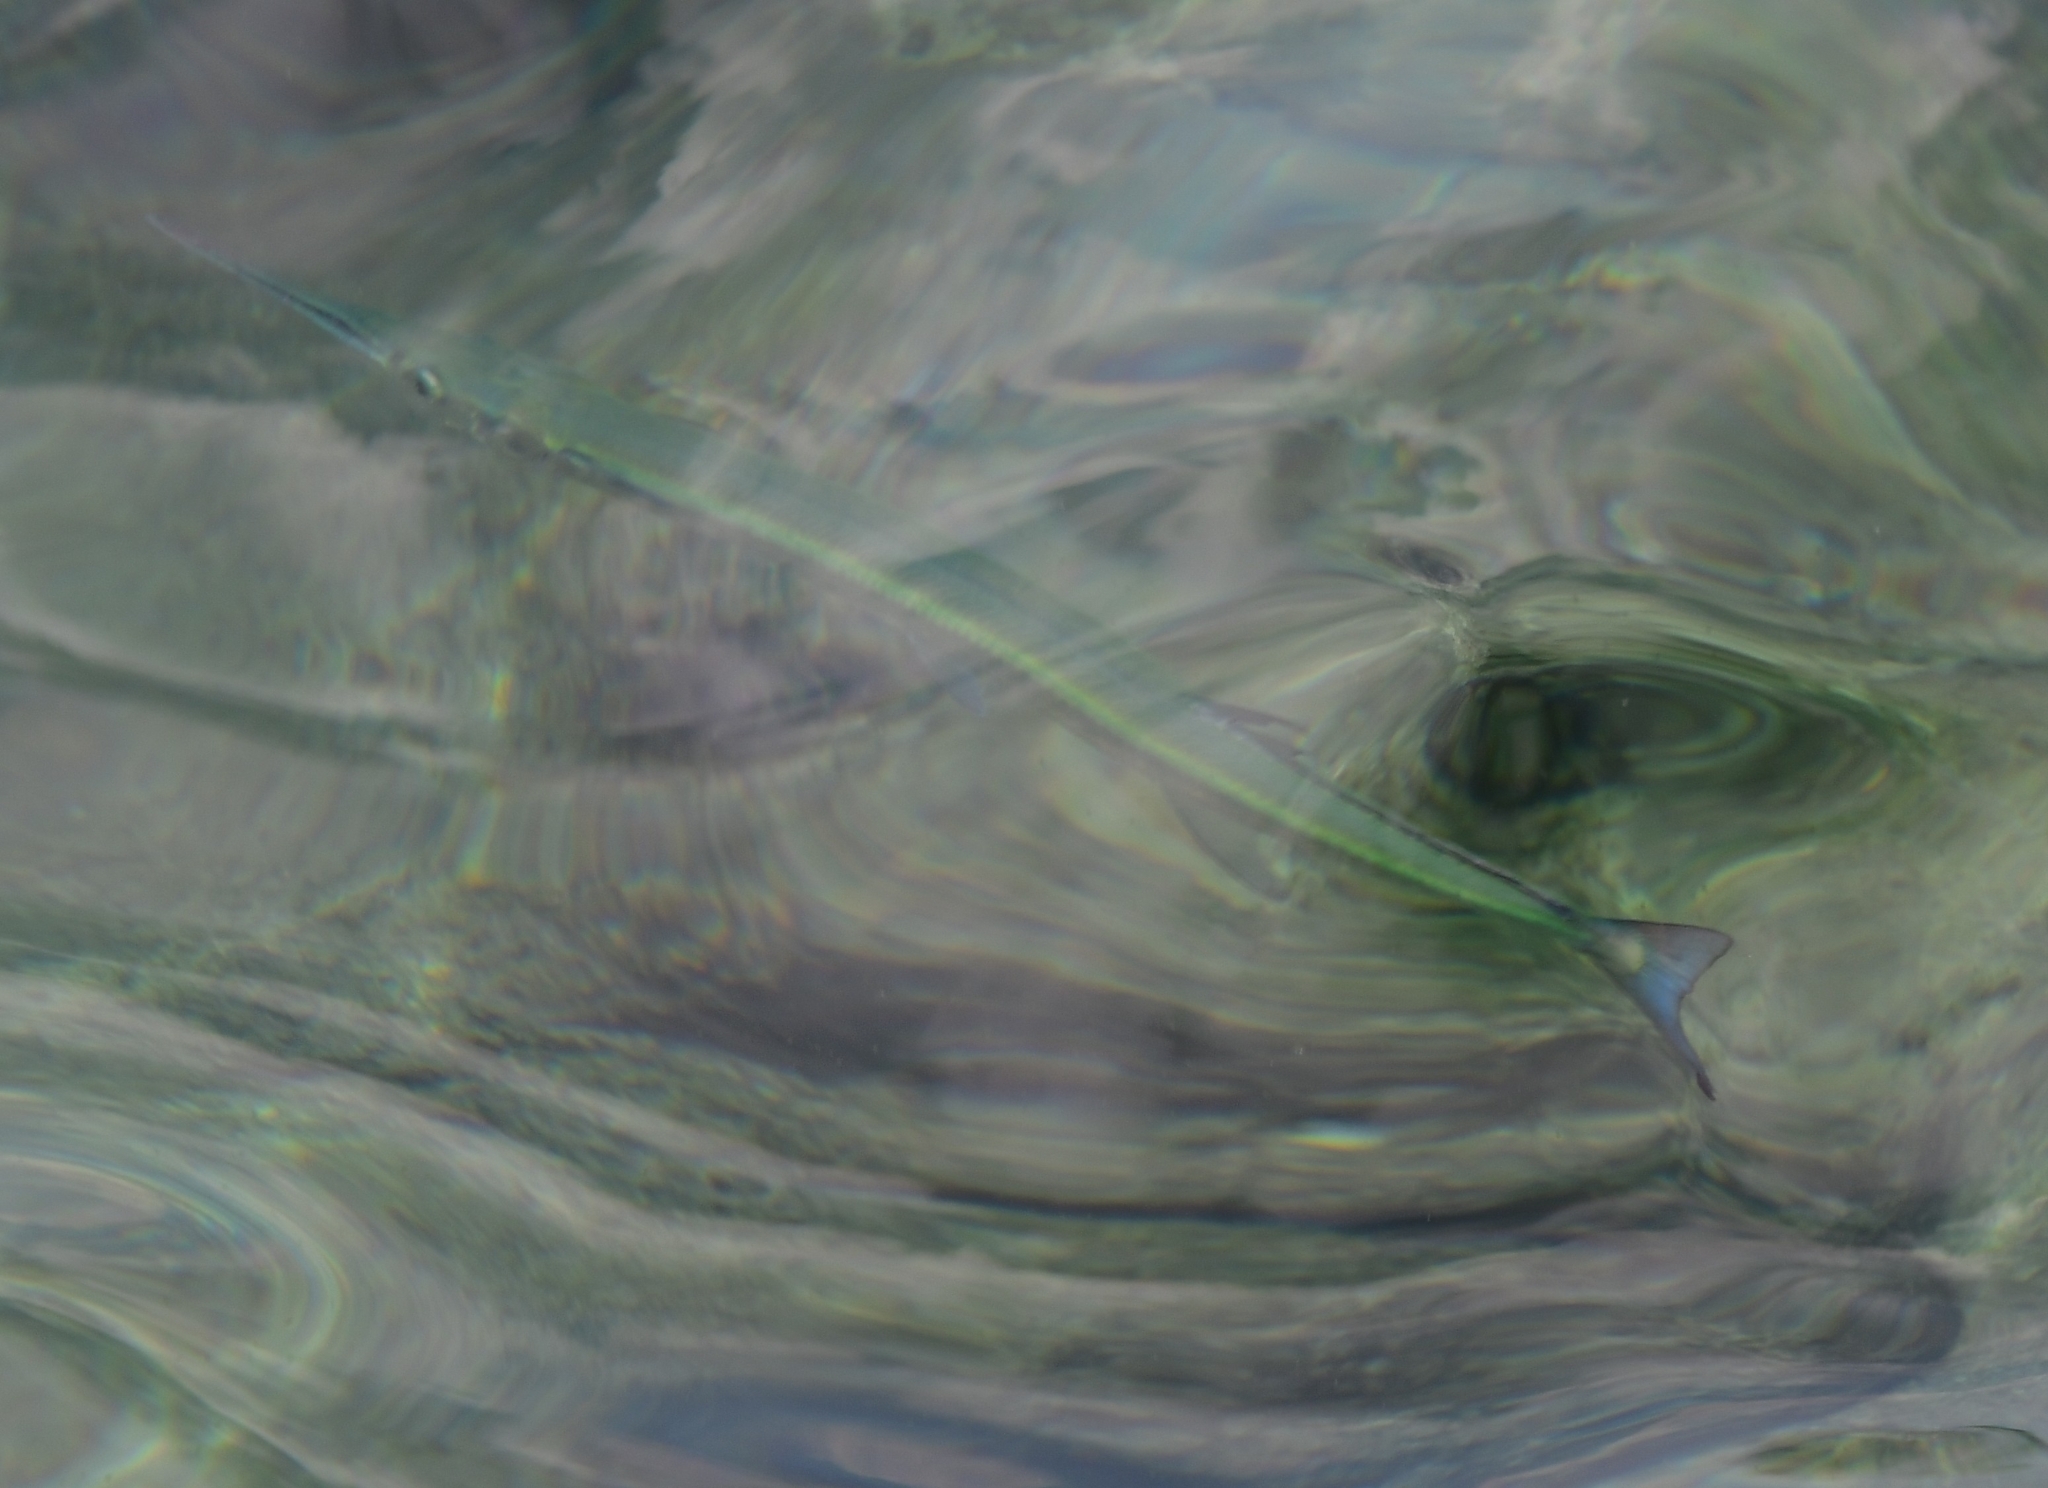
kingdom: Animalia
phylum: Chordata
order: Beloniformes
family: Belonidae
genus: Tylosurus
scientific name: Tylosurus crocodilus
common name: Houndfish
